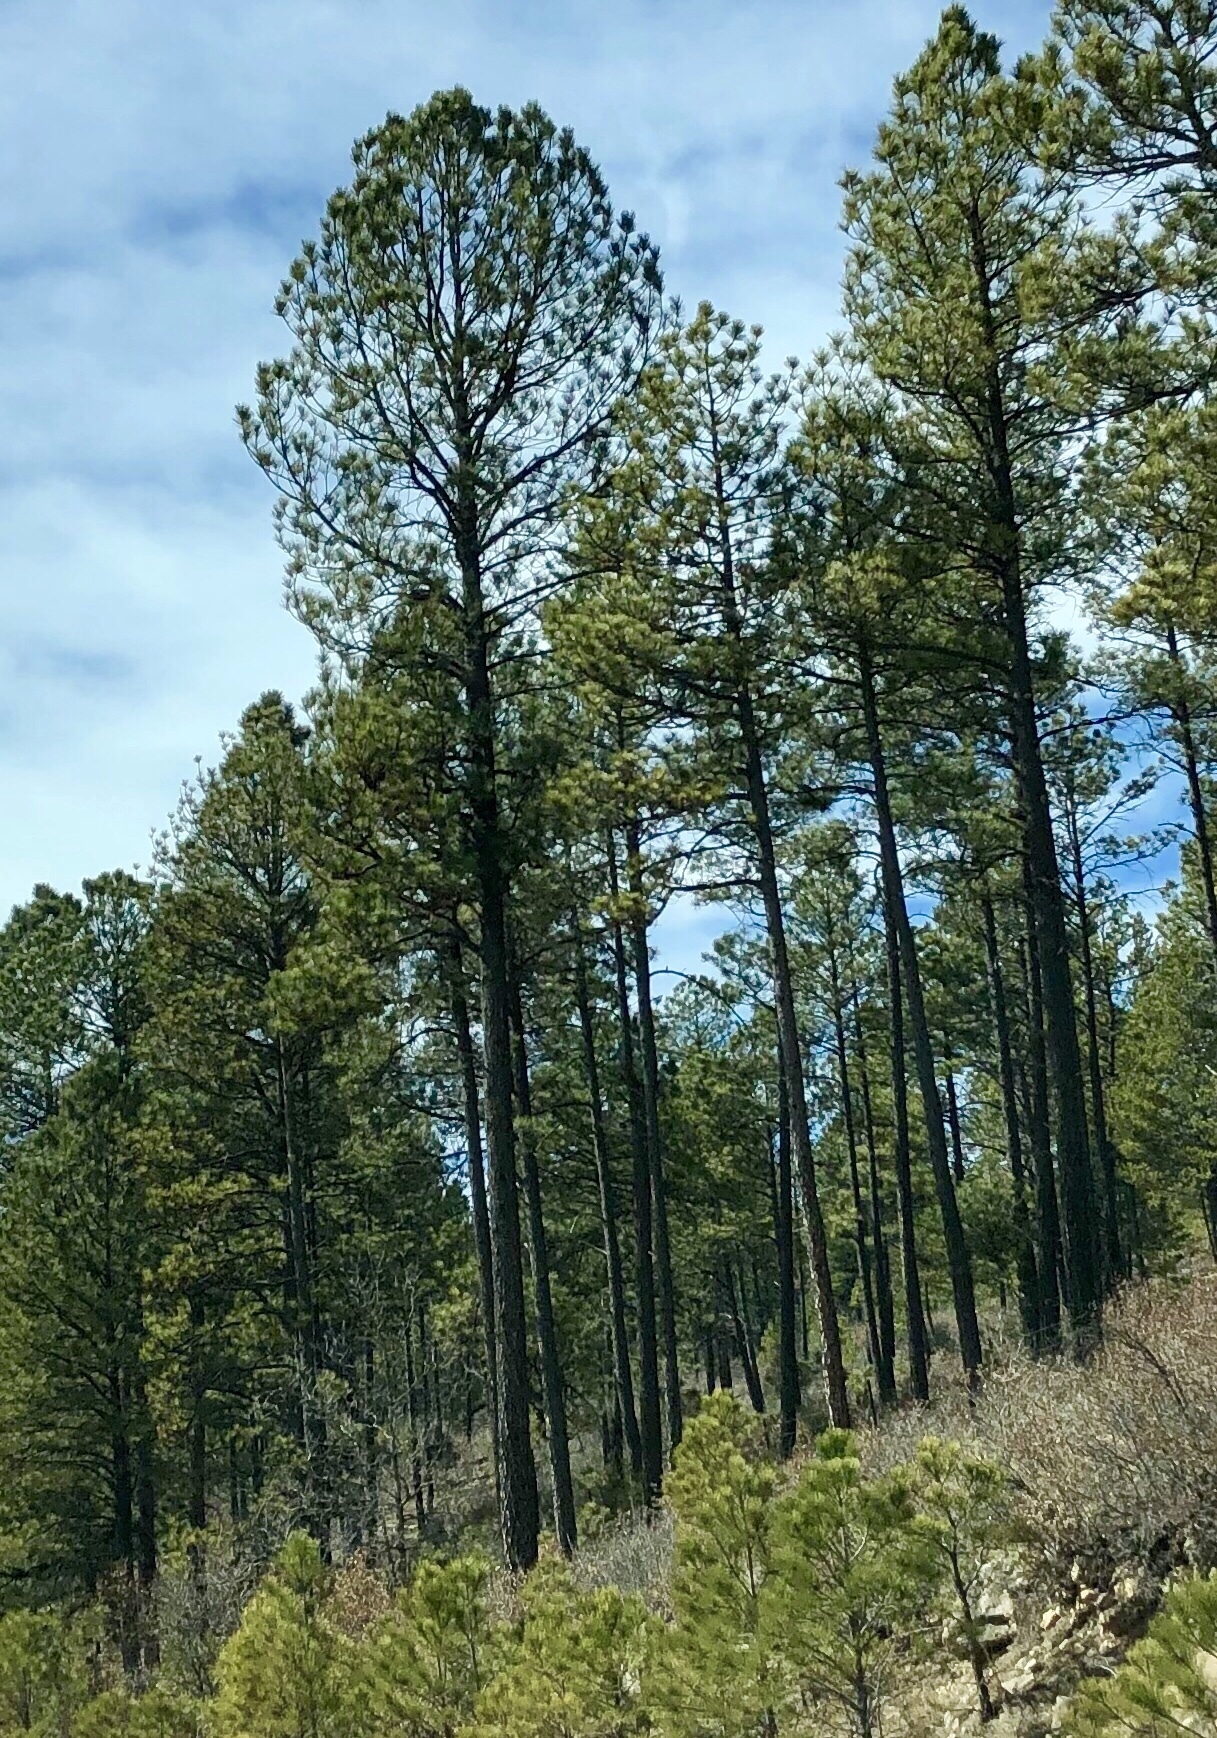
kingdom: Plantae
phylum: Tracheophyta
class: Pinopsida
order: Pinales
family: Pinaceae
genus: Pinus
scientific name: Pinus ponderosa
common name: Western yellow-pine
